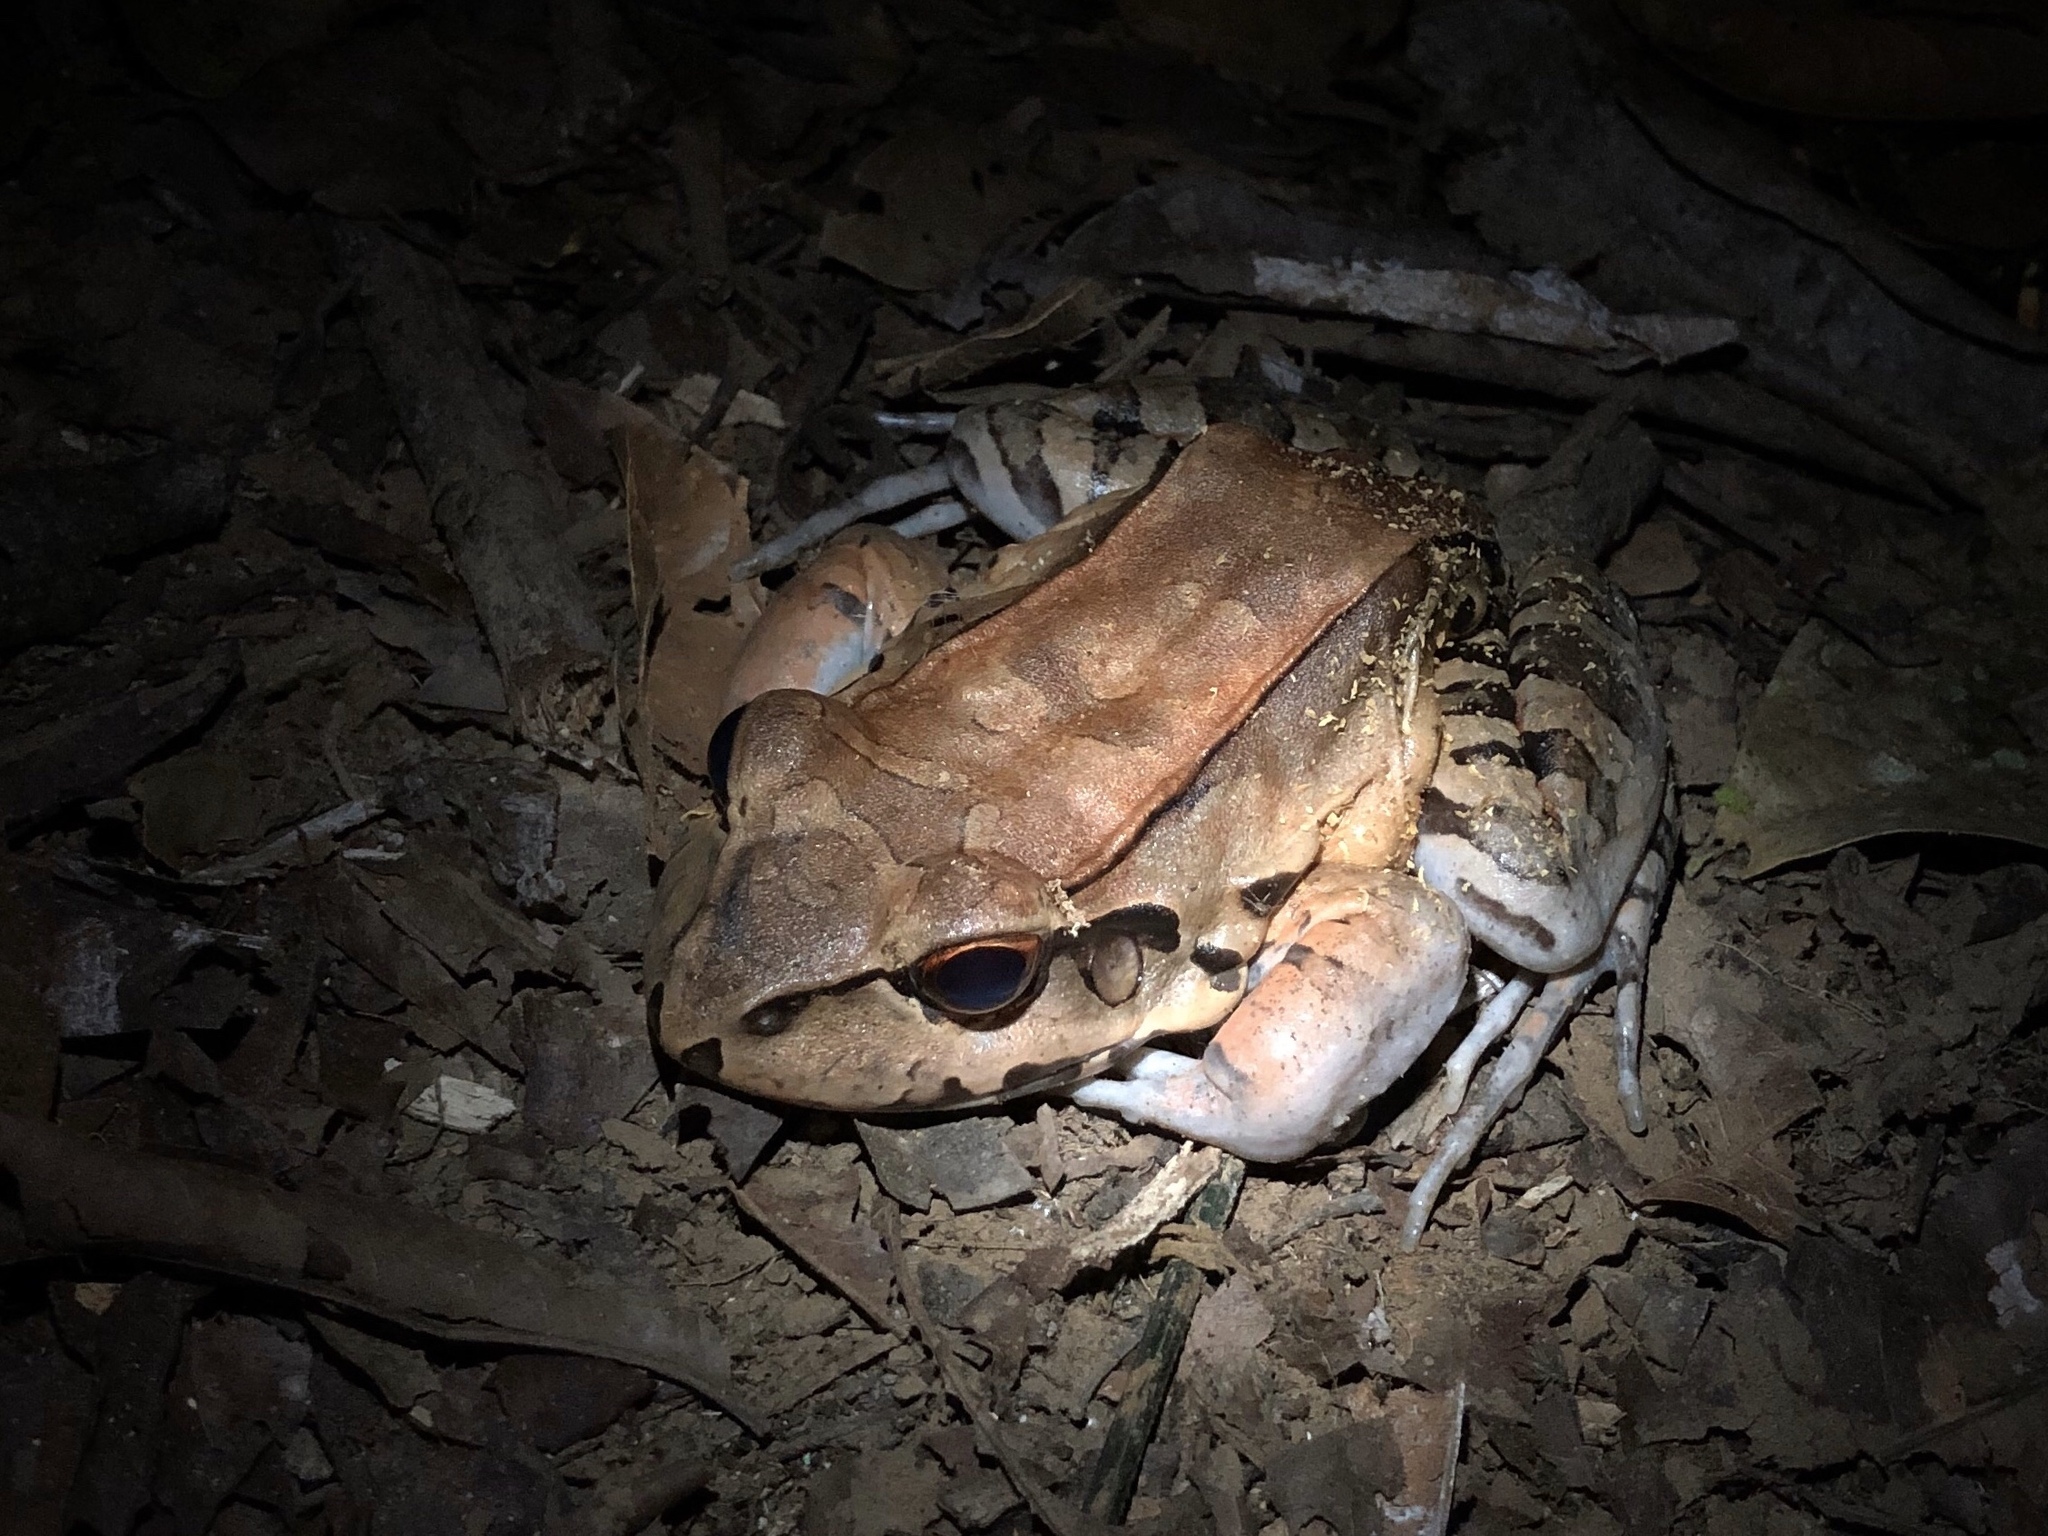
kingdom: Animalia
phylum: Chordata
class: Amphibia
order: Anura
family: Leptodactylidae
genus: Leptodactylus
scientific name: Leptodactylus savagei
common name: Savage's thin-toed frog
